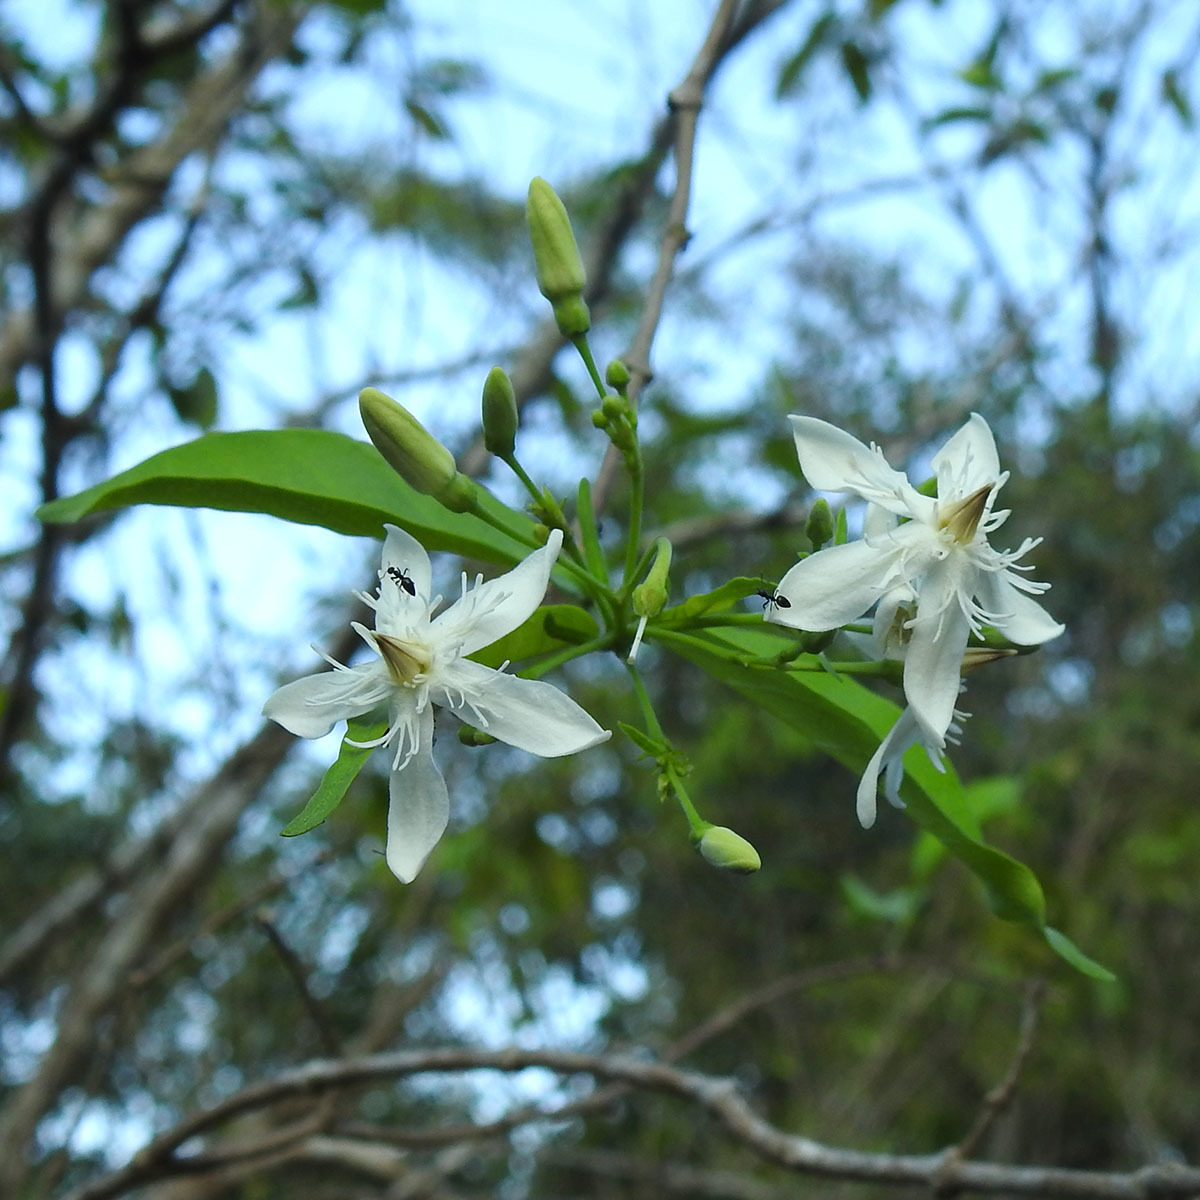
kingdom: Plantae
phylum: Tracheophyta
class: Magnoliopsida
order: Gentianales
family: Apocynaceae
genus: Wrightia
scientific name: Wrightia tinctoria
